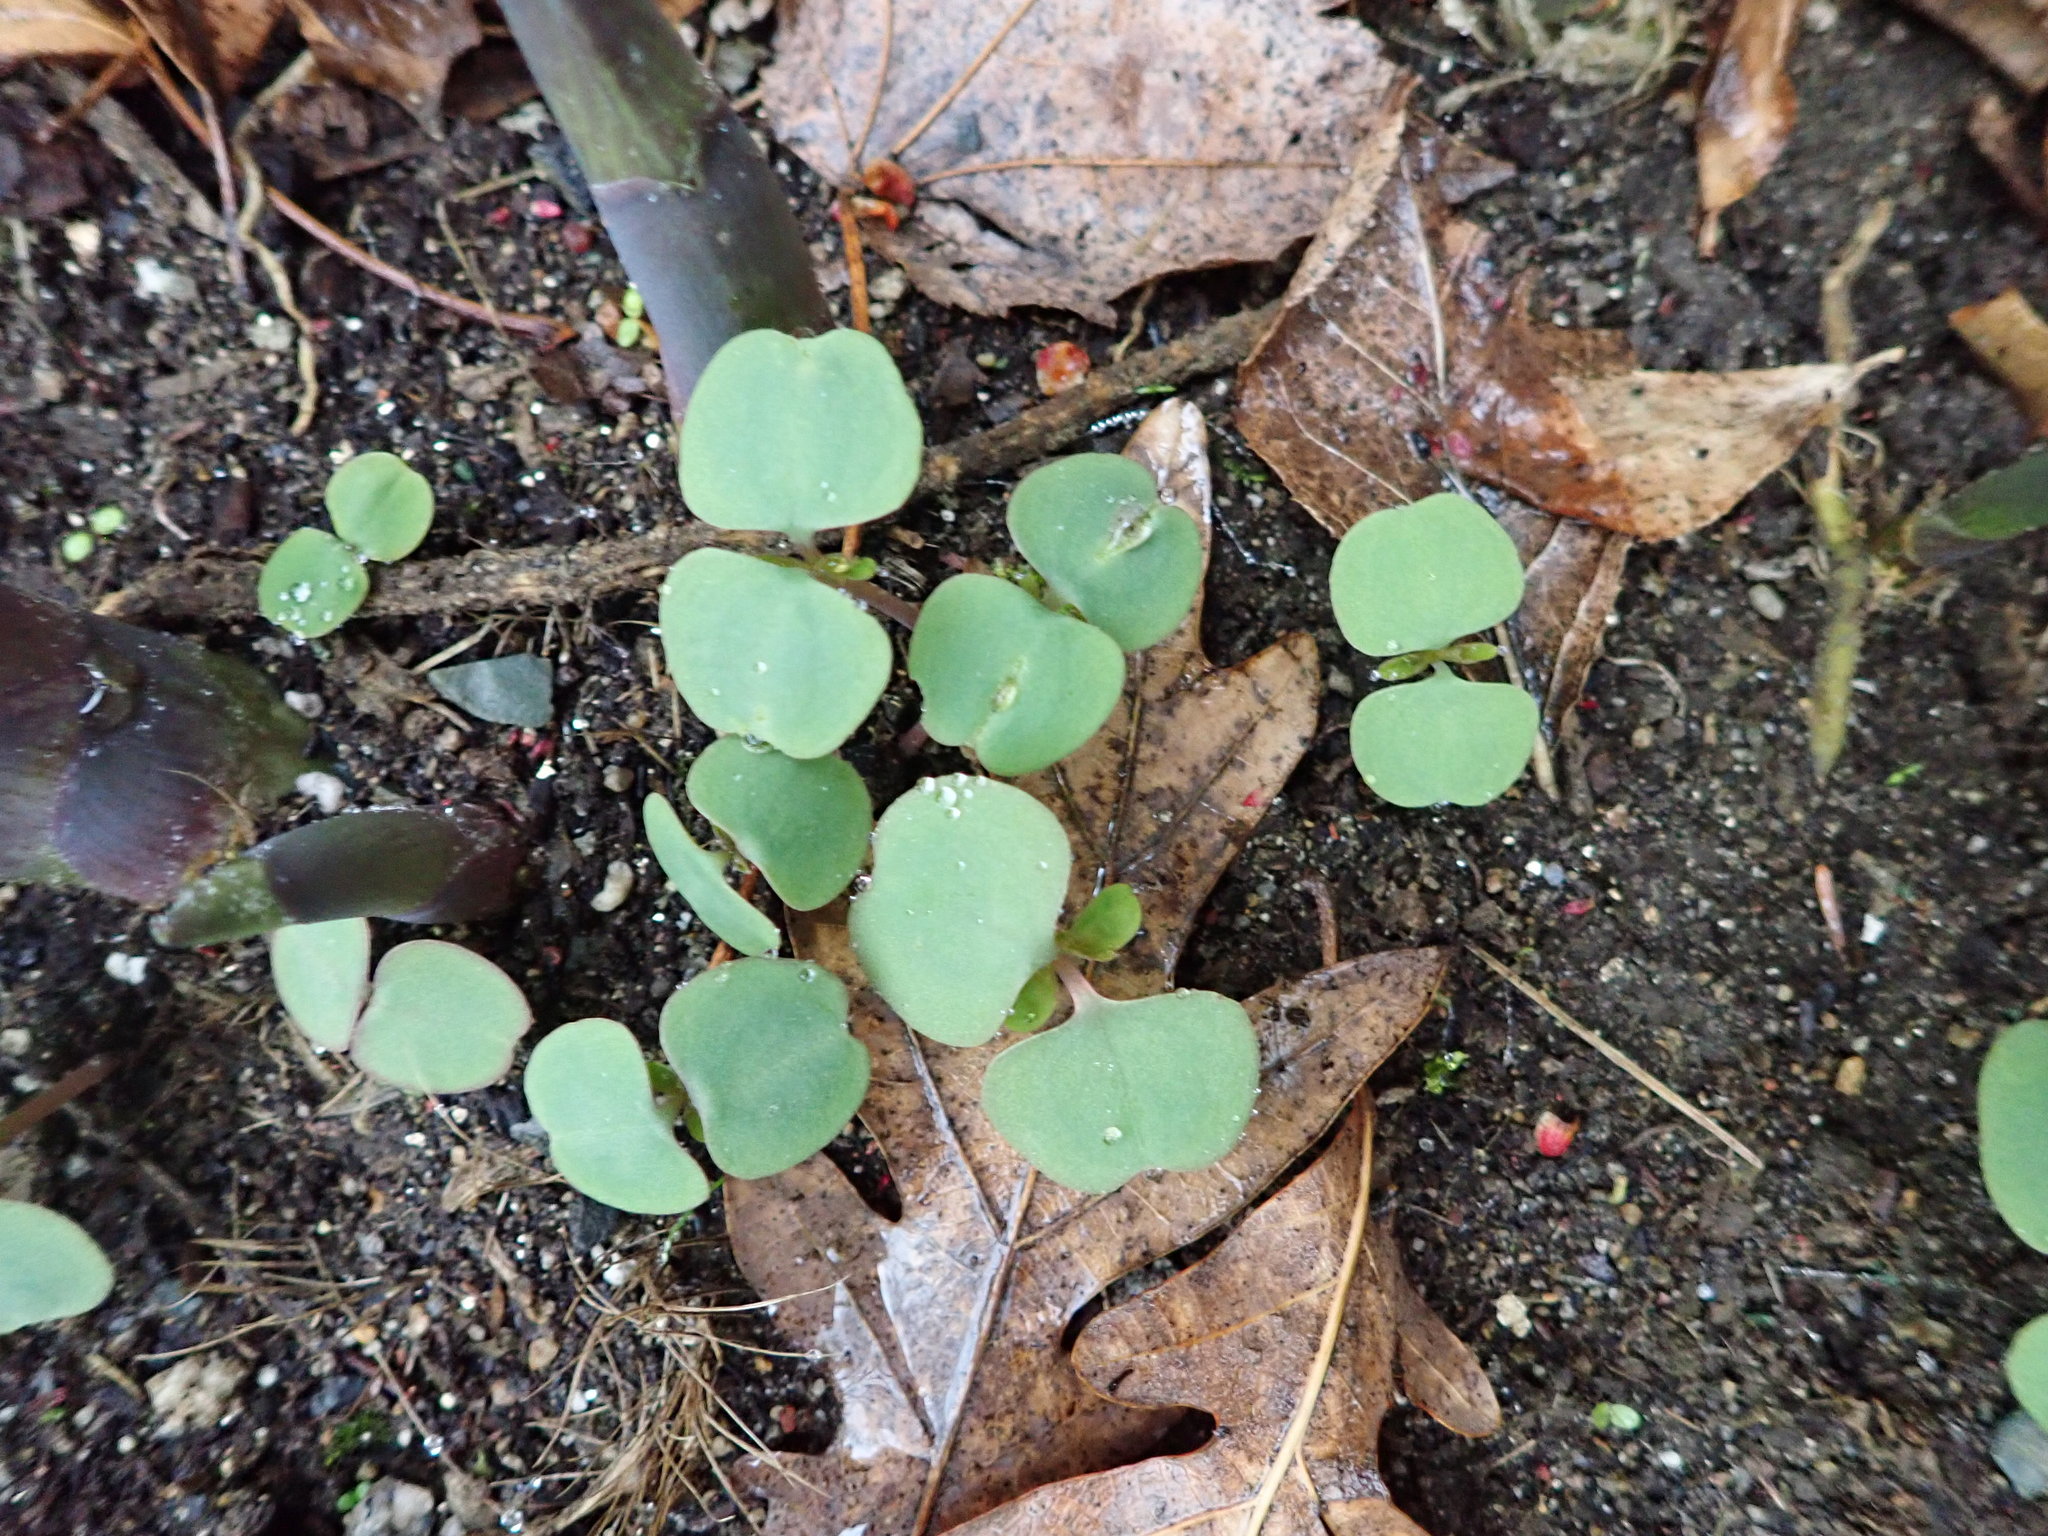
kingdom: Plantae
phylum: Tracheophyta
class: Magnoliopsida
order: Ericales
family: Balsaminaceae
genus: Impatiens
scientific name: Impatiens
